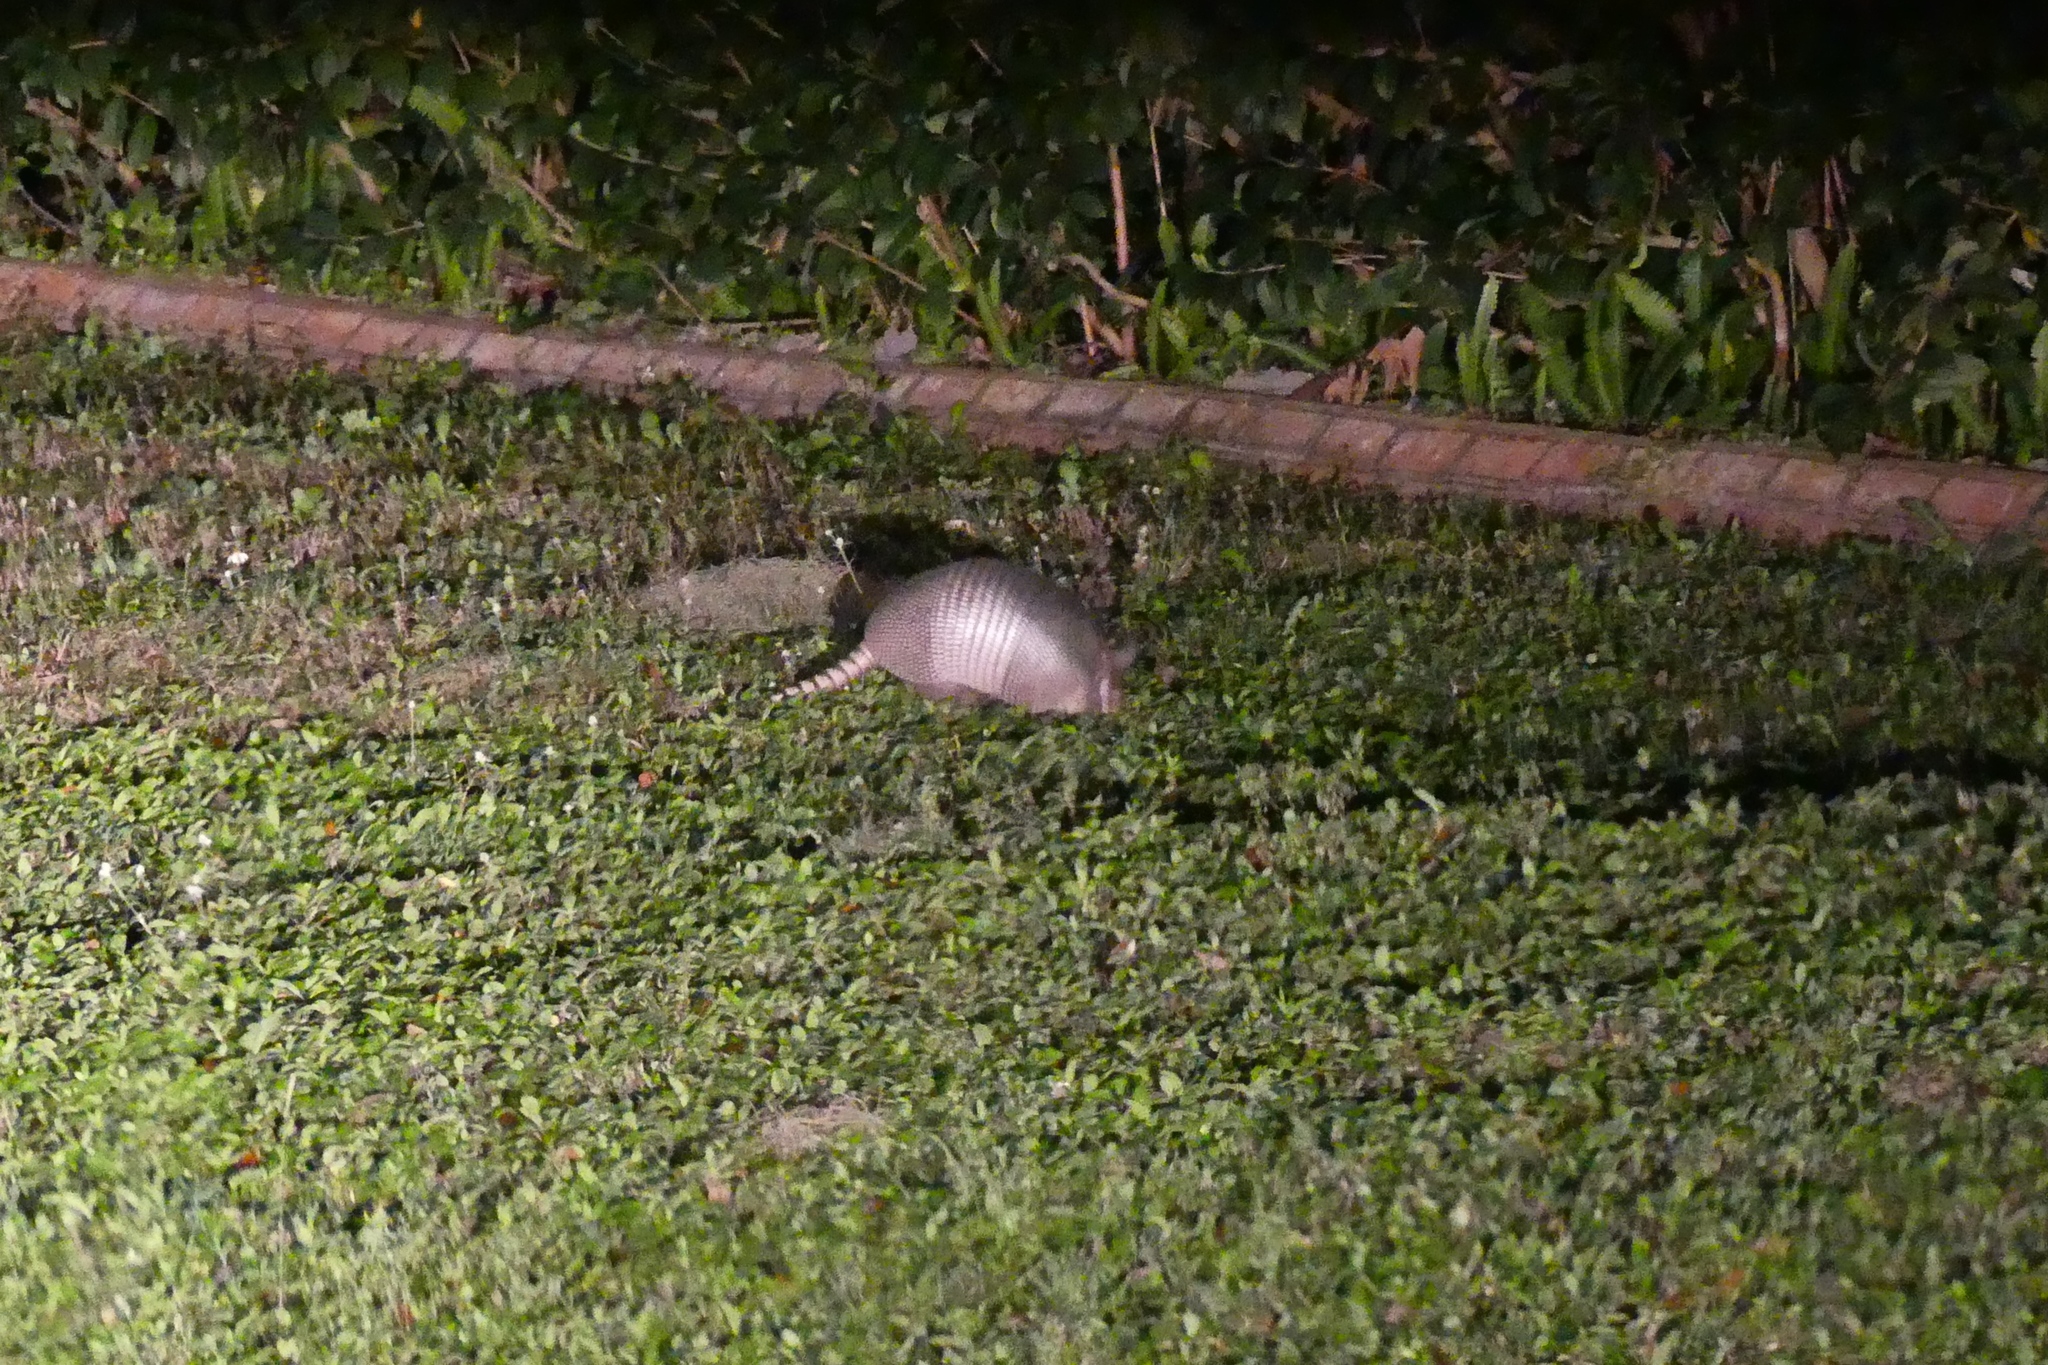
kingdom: Animalia
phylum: Chordata
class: Mammalia
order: Cingulata
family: Dasypodidae
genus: Dasypus
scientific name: Dasypus novemcinctus
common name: Nine-banded armadillo
